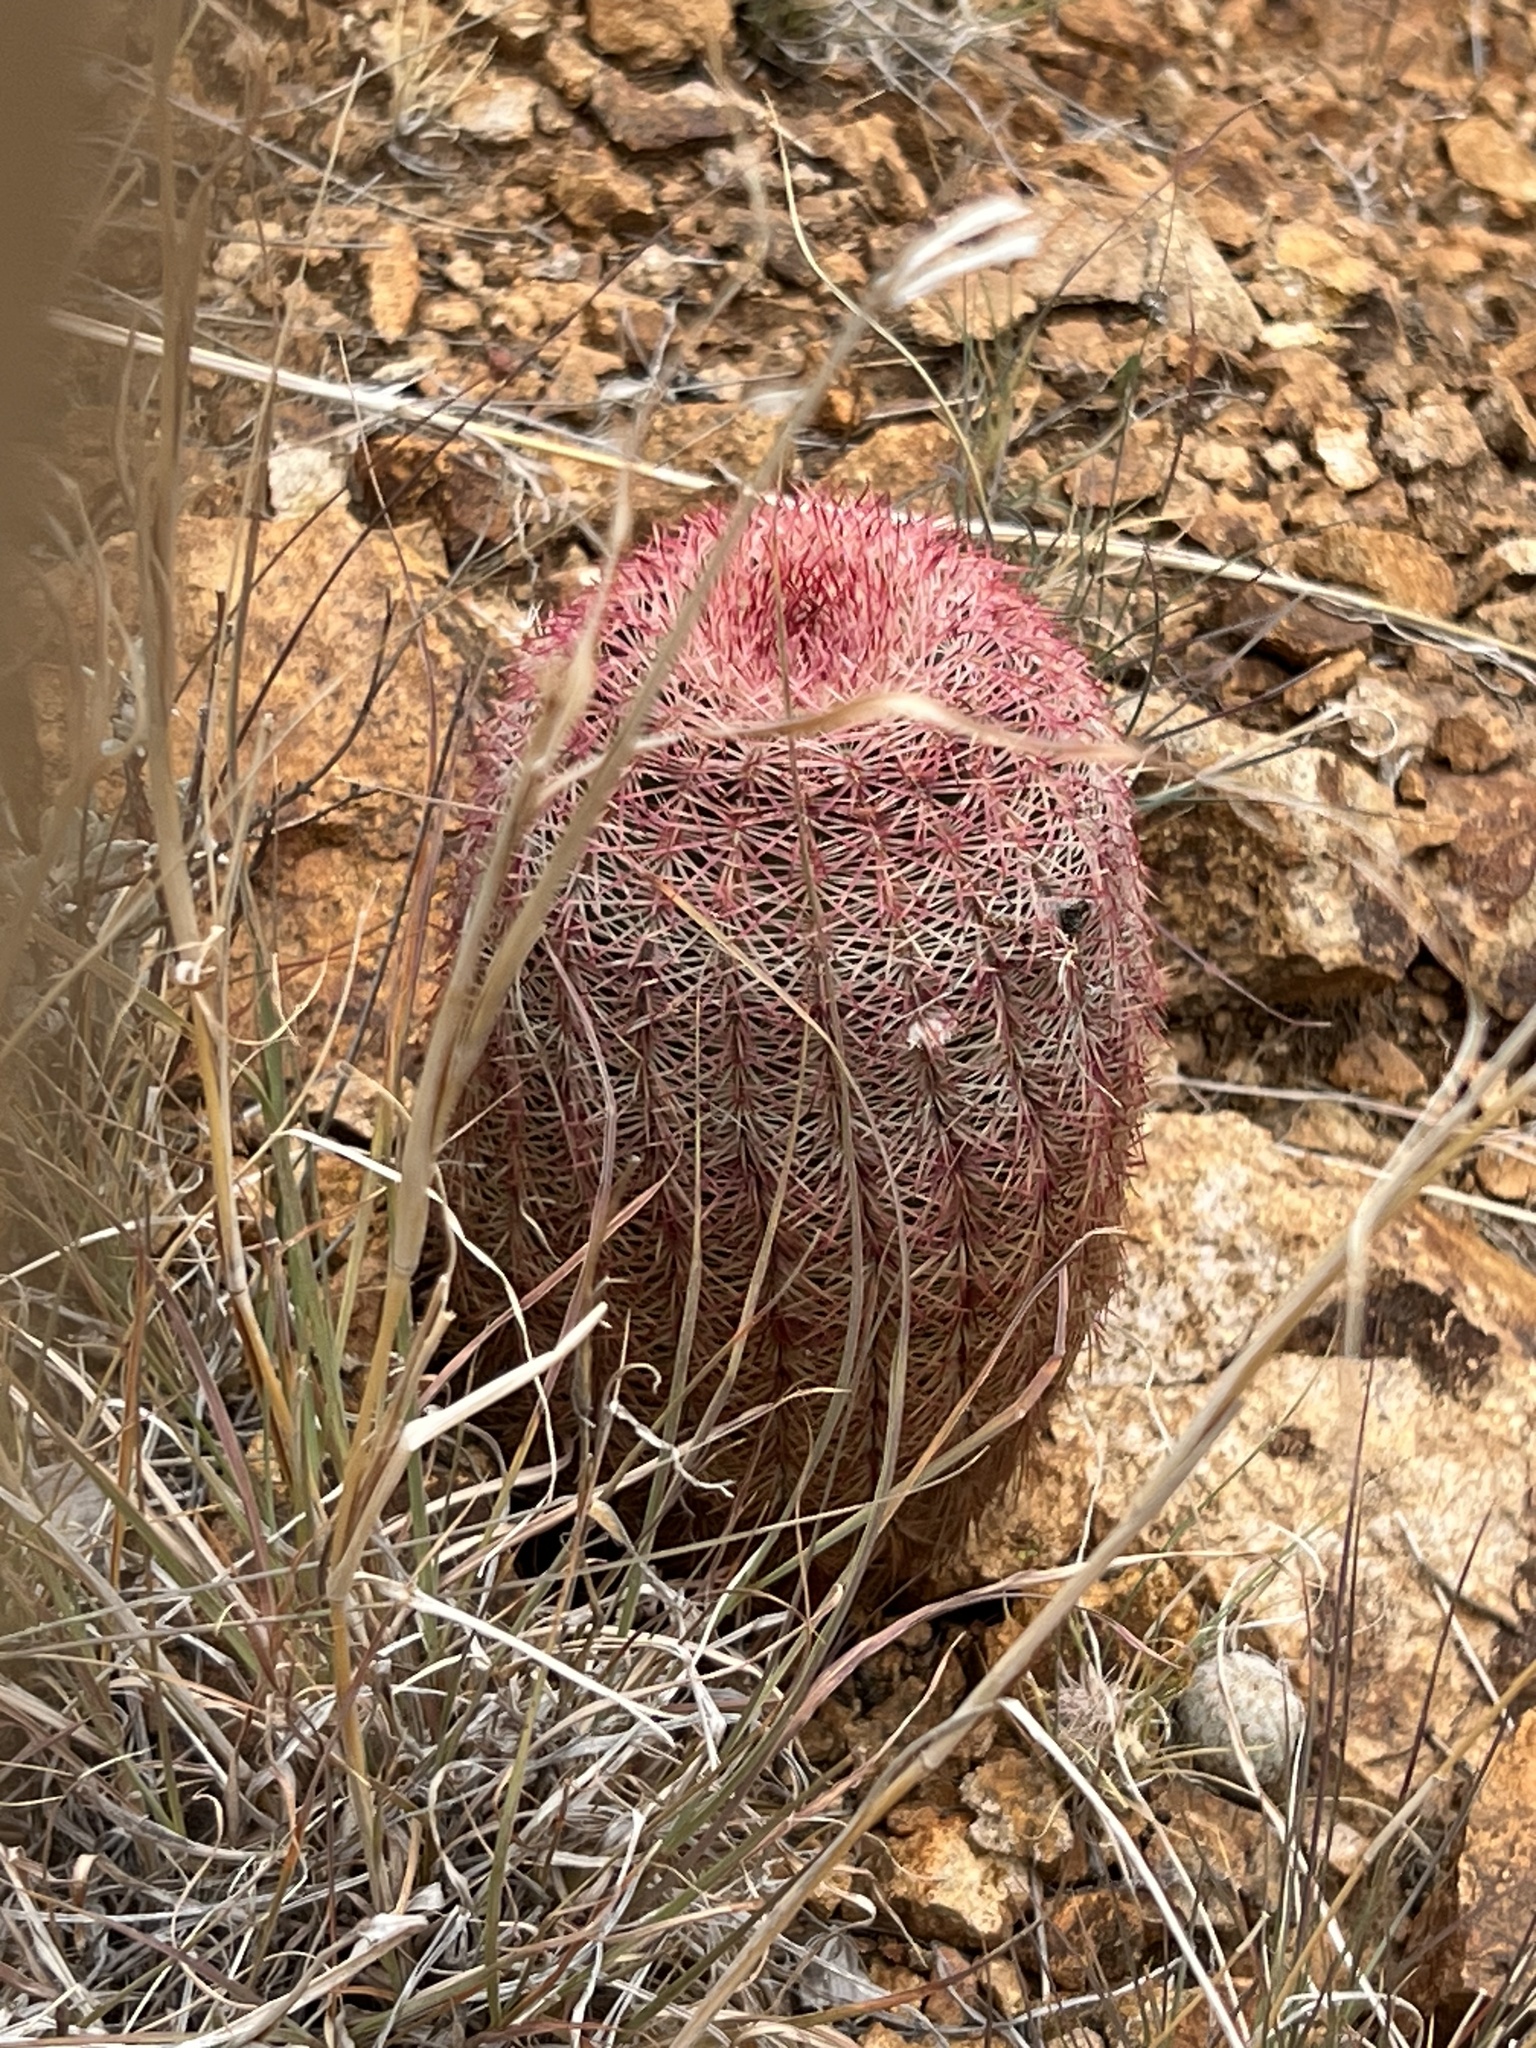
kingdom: Plantae
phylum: Tracheophyta
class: Magnoliopsida
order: Caryophyllales
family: Cactaceae
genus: Echinocereus
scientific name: Echinocereus rigidissimus
